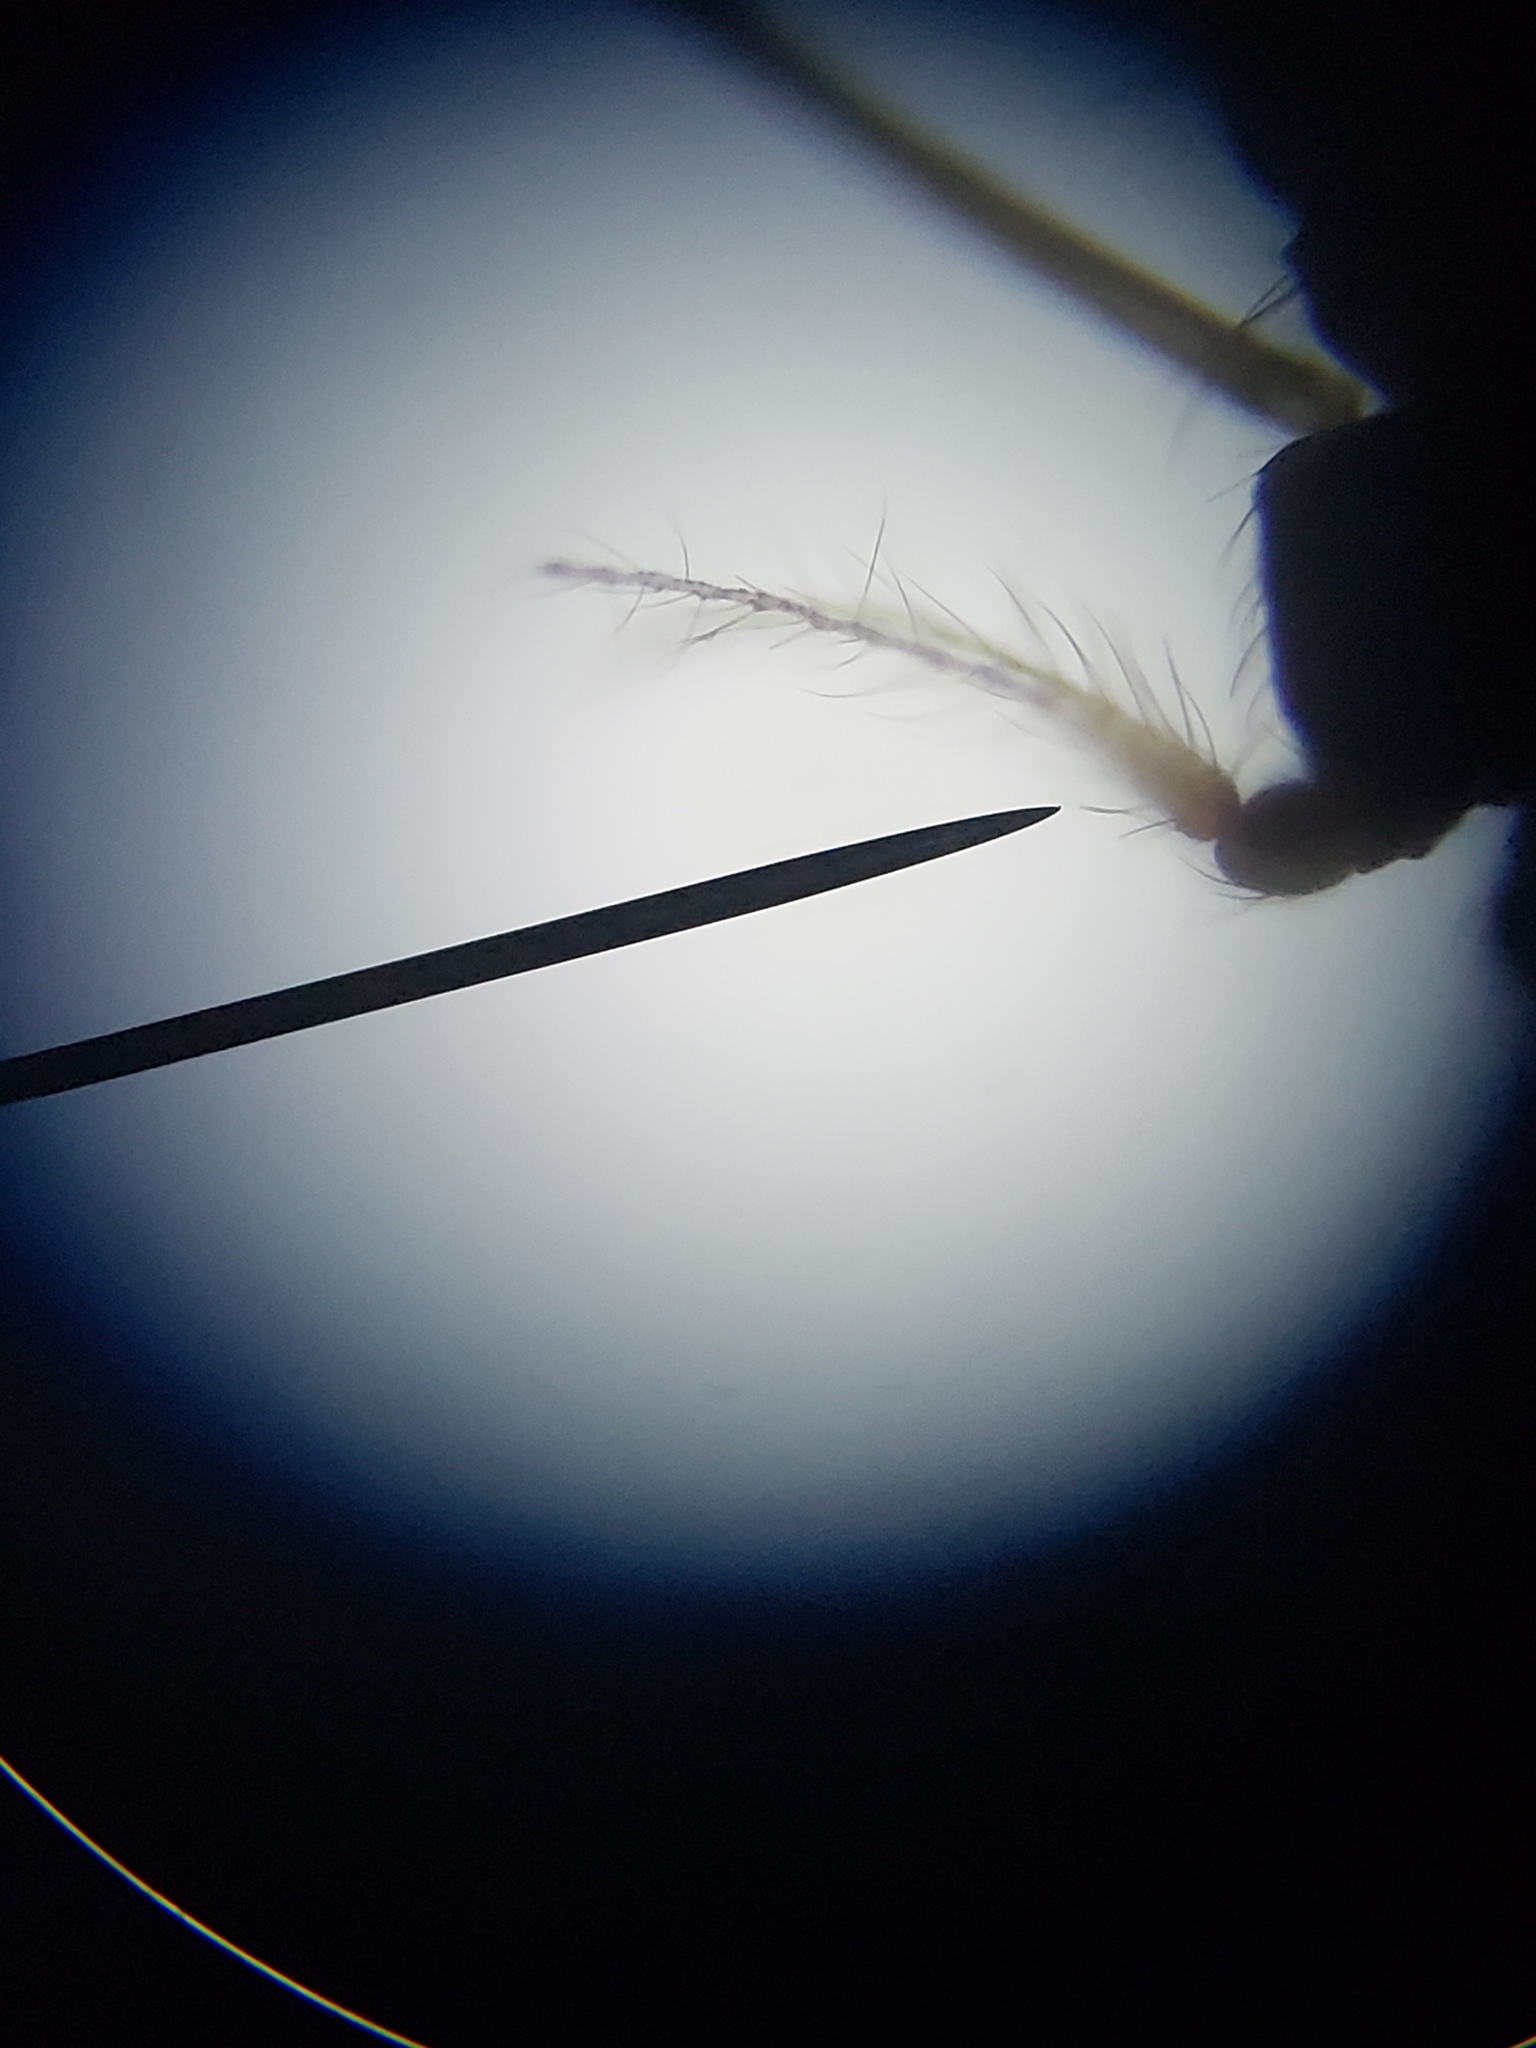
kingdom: Animalia
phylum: Arthropoda
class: Insecta
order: Diptera
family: Limoniidae
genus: Erioptera
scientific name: Erioptera parva
